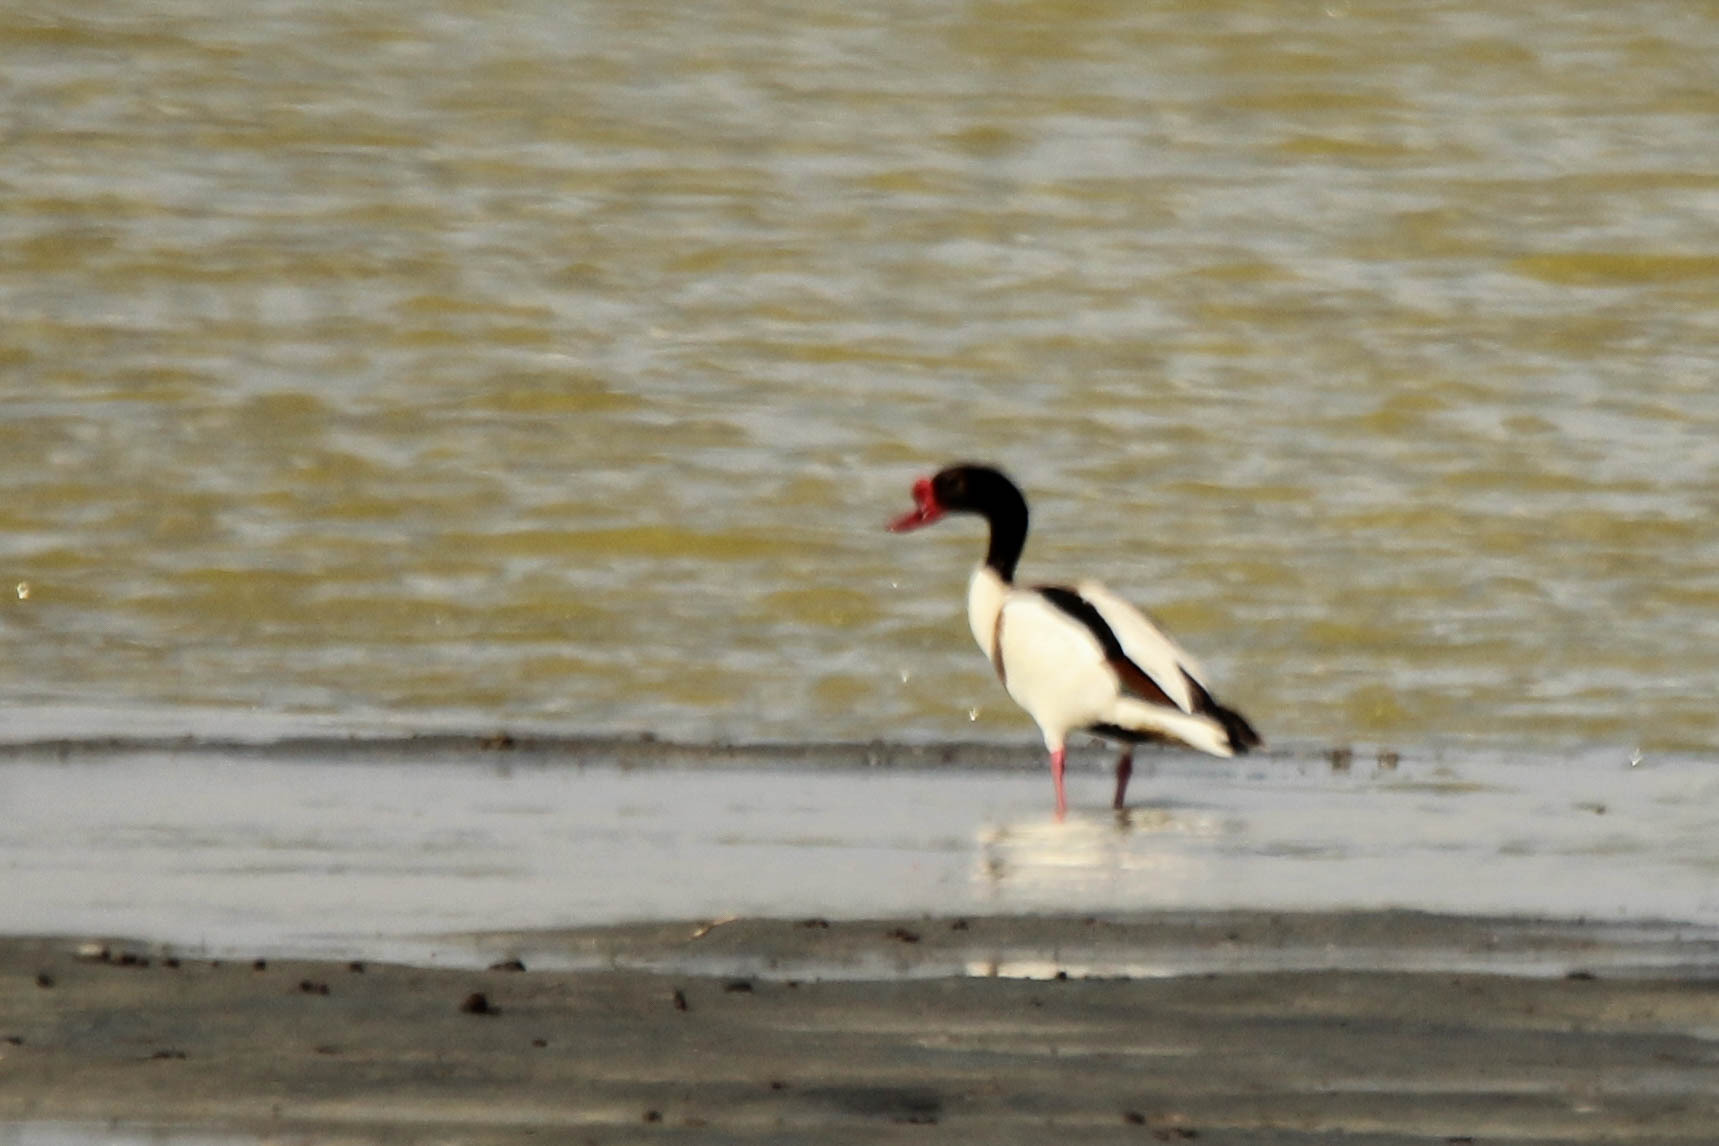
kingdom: Animalia
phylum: Chordata
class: Aves
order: Anseriformes
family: Anatidae
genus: Tadorna
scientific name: Tadorna tadorna
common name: Common shelduck
